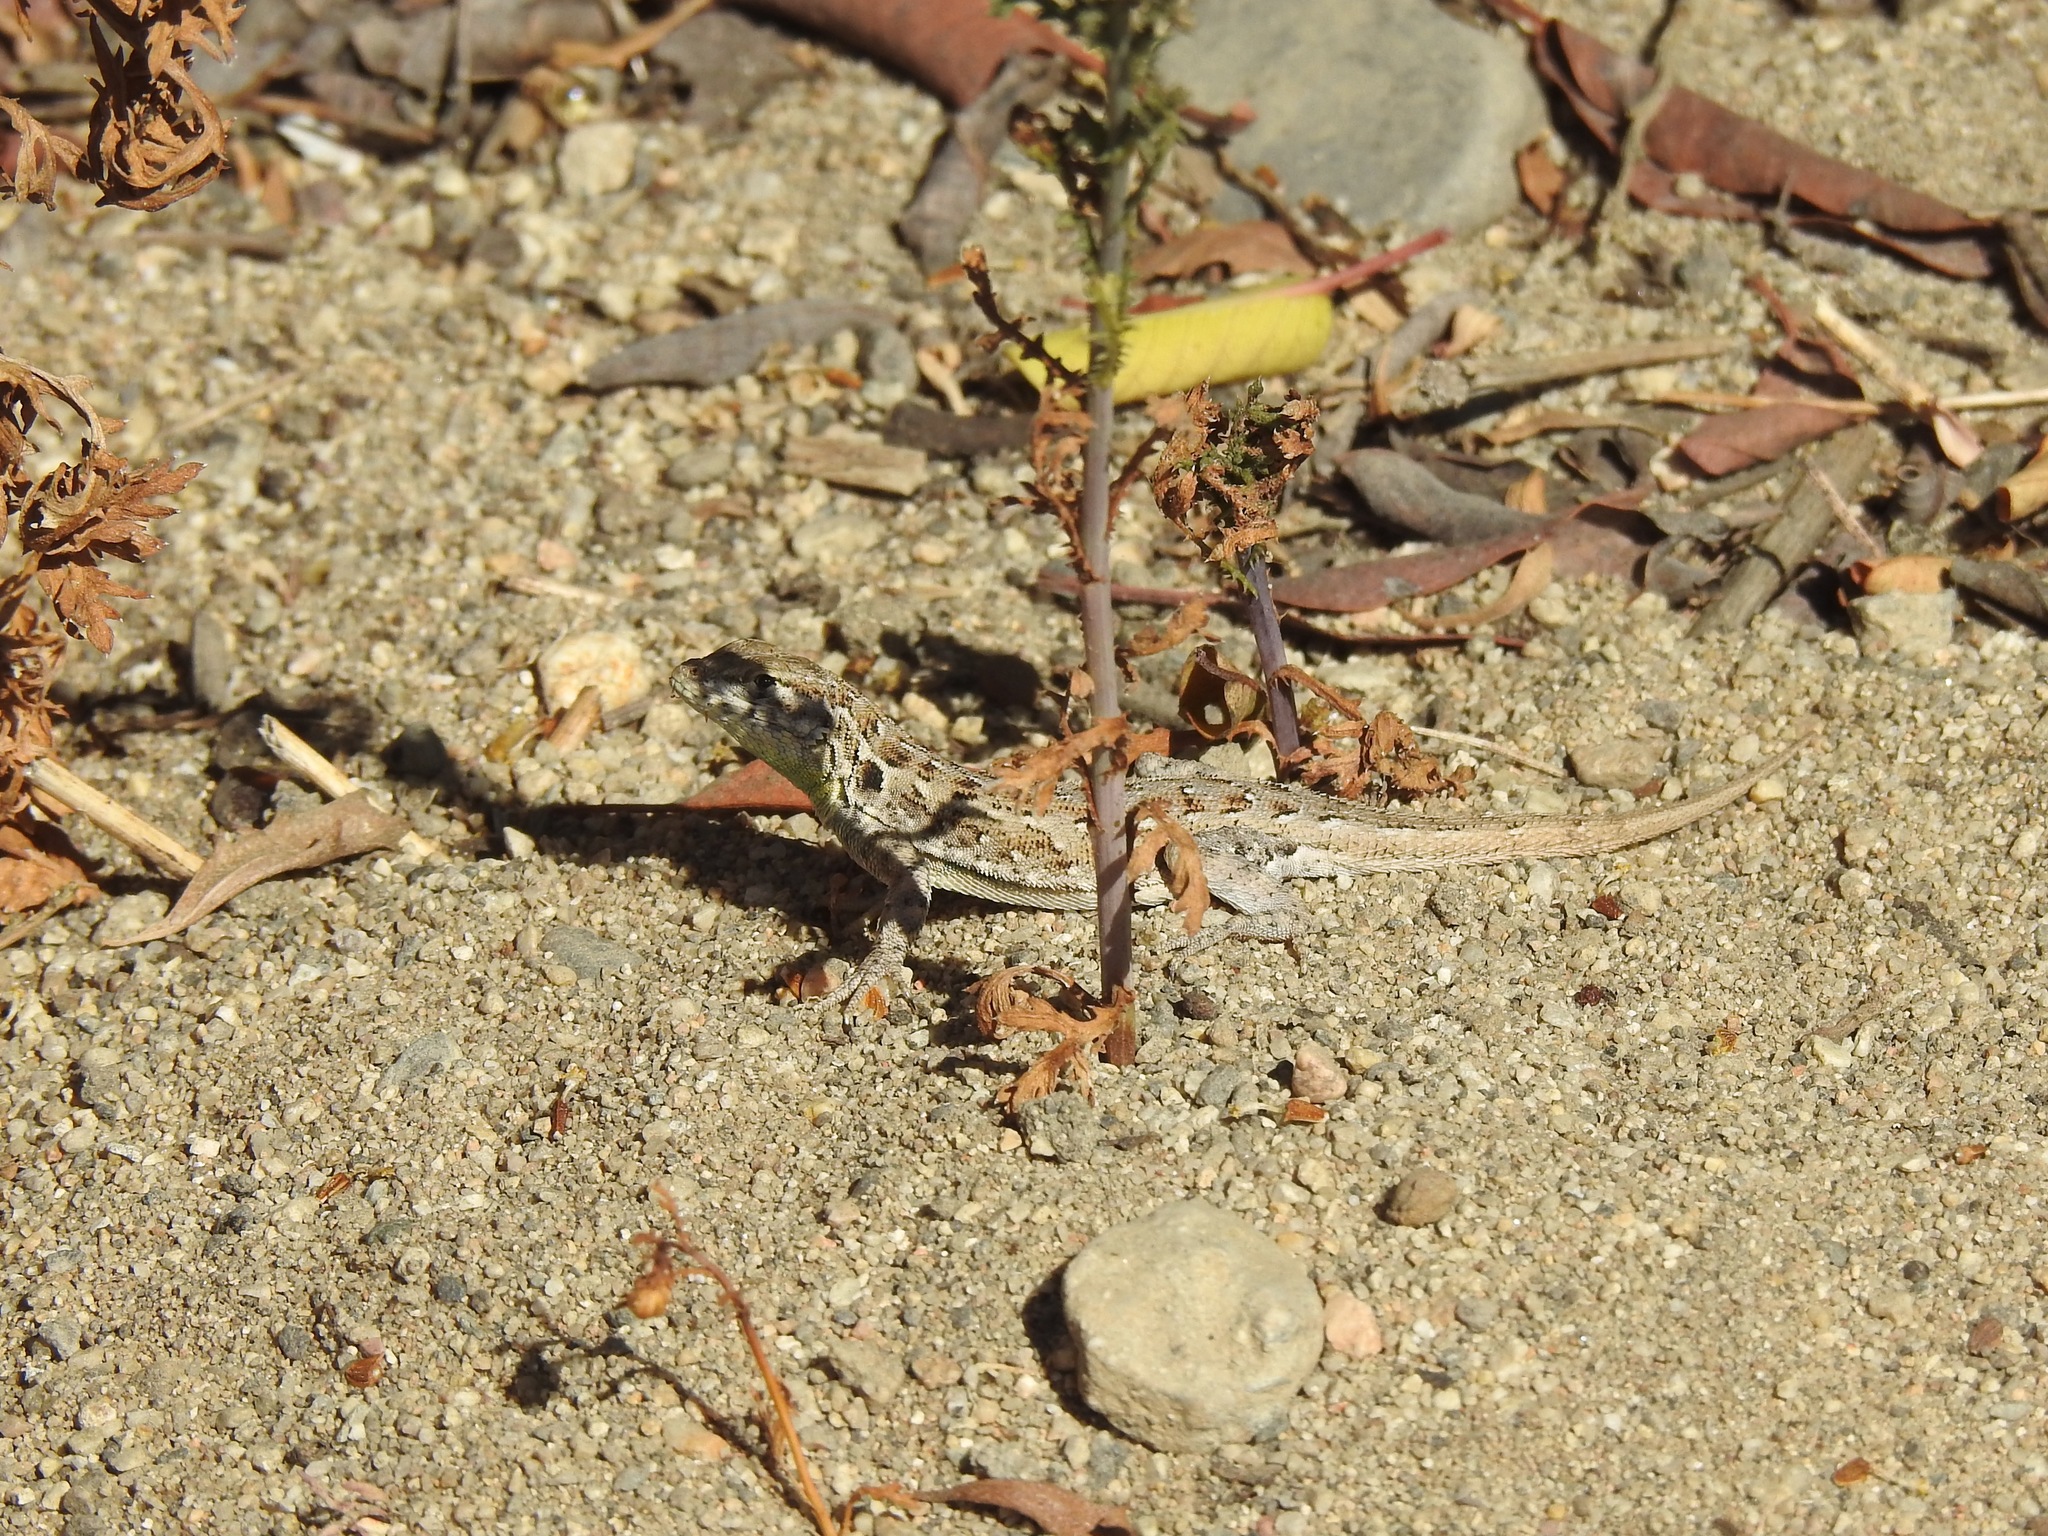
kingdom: Animalia
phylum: Chordata
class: Squamata
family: Phrynosomatidae
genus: Uta
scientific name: Uta stansburiana
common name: Side-blotched lizard
